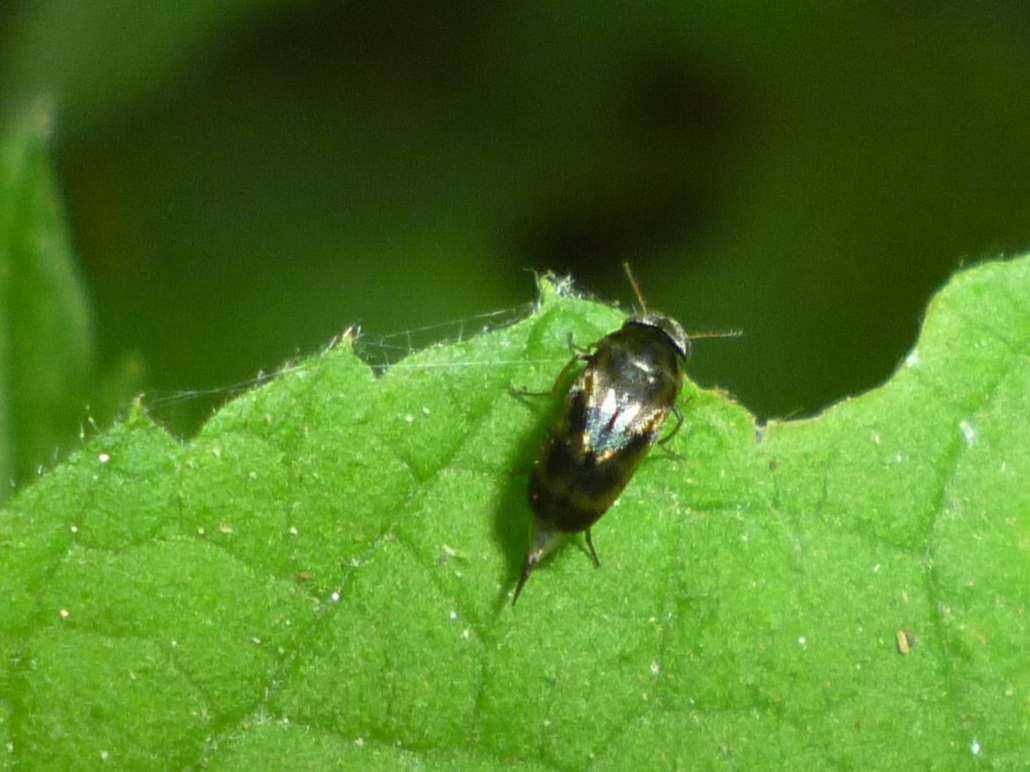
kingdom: Animalia
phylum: Arthropoda
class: Insecta
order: Coleoptera
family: Mordellidae
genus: Paramordellaria
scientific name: Paramordellaria triloba
